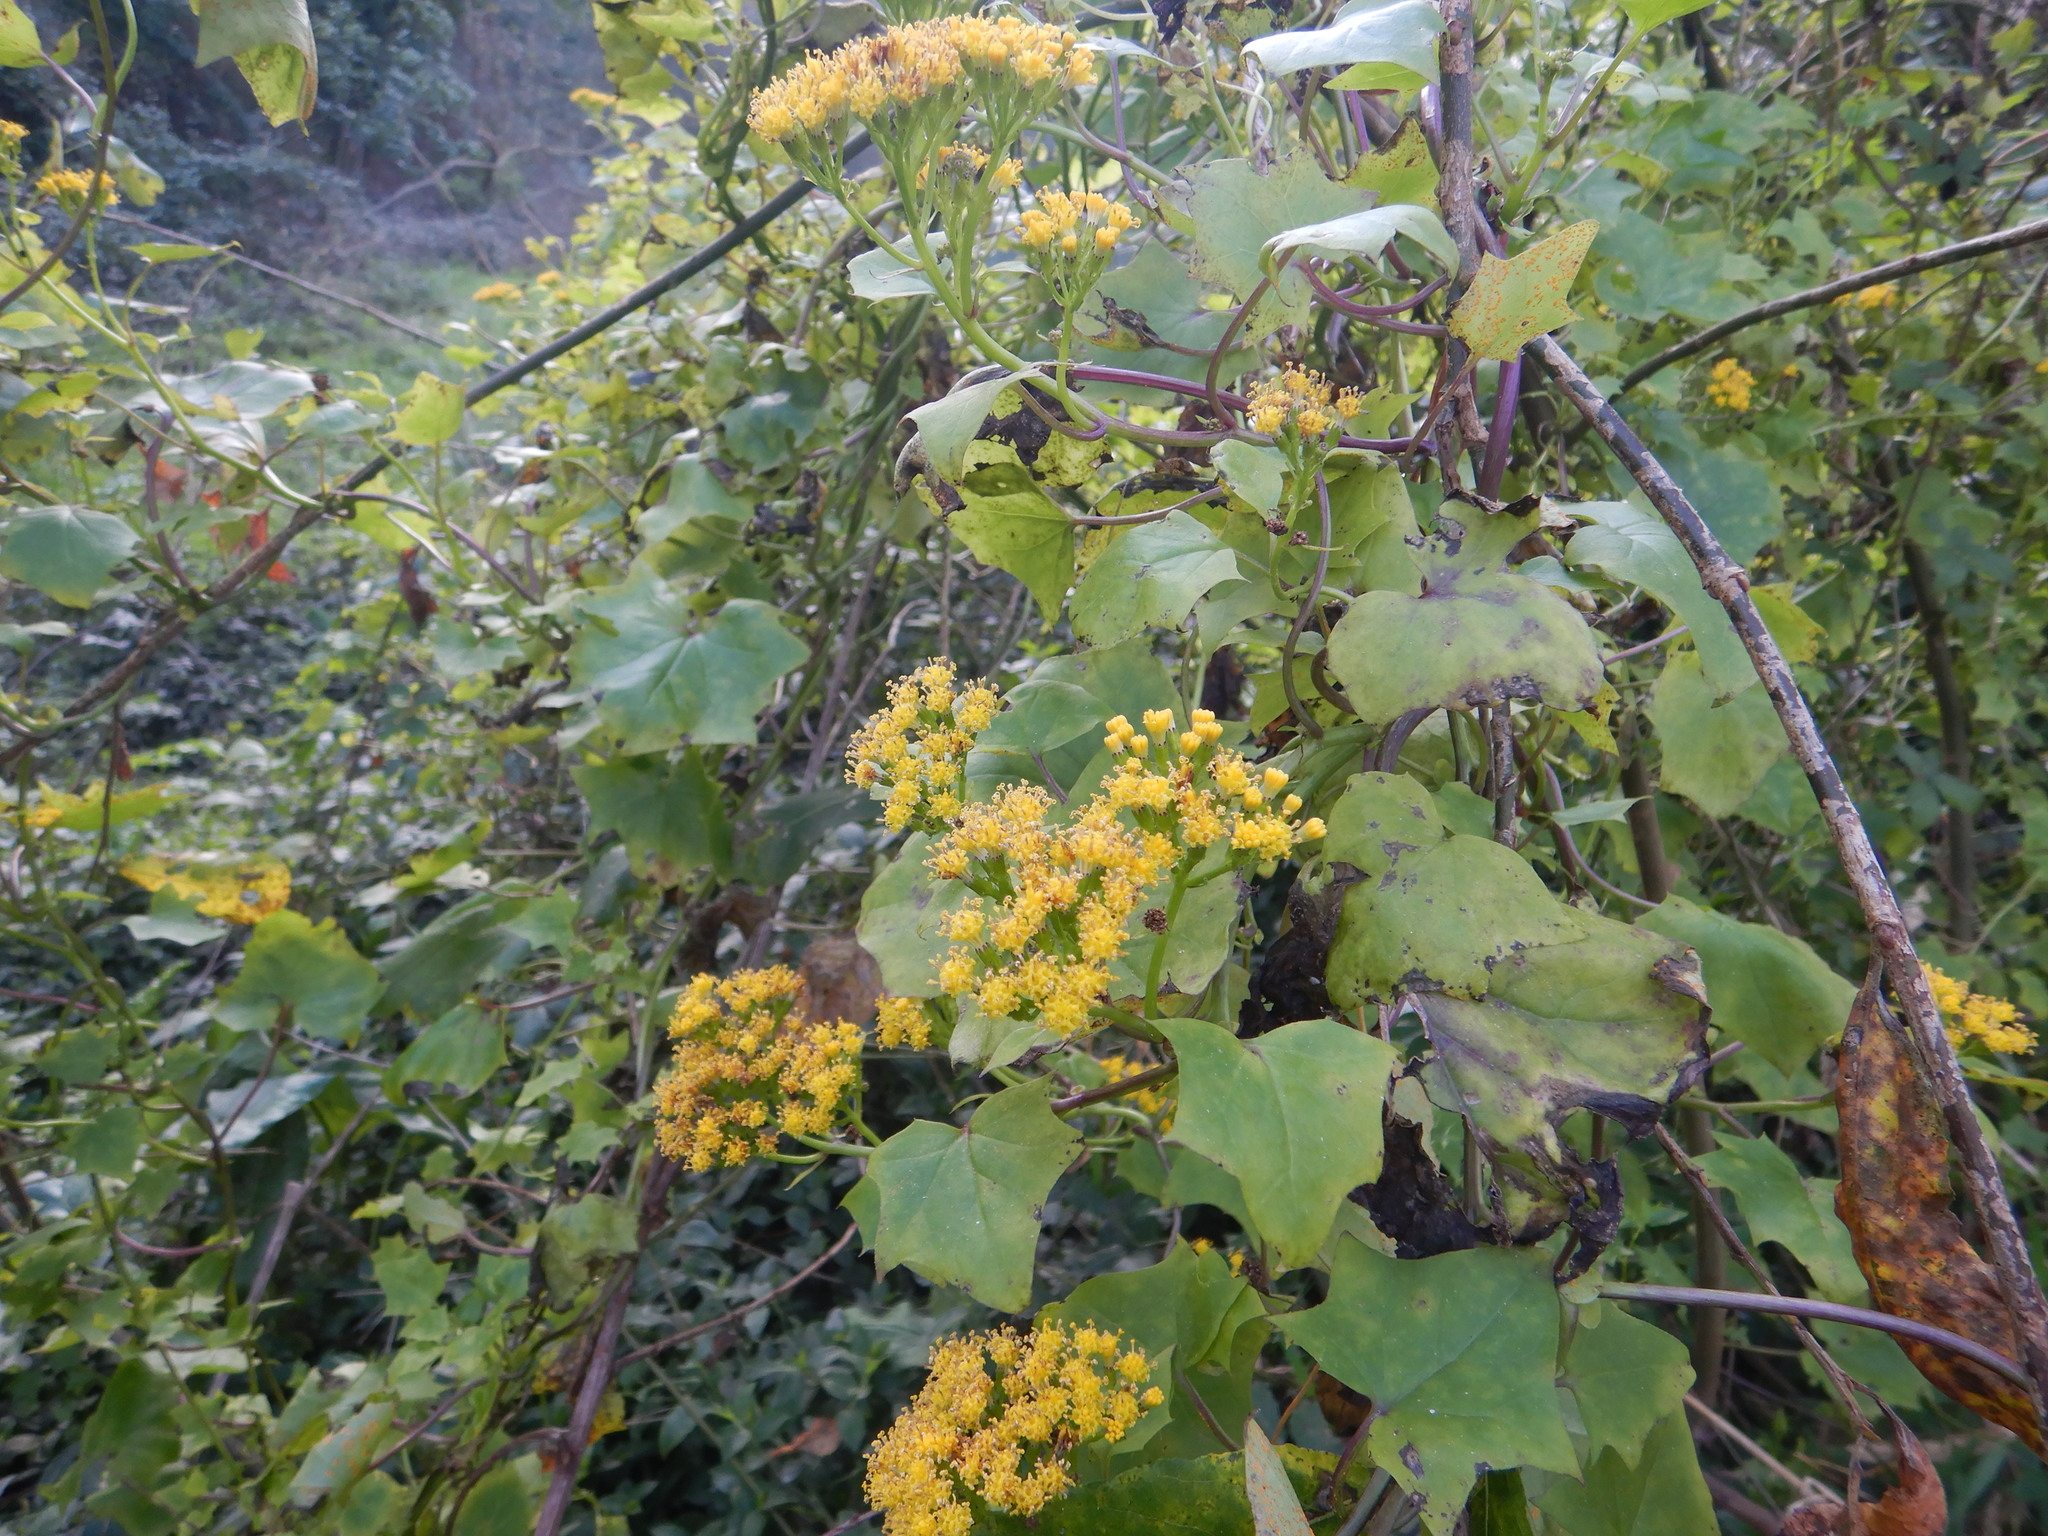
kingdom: Plantae
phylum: Tracheophyta
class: Magnoliopsida
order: Asterales
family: Asteraceae
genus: Delairea
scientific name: Delairea odorata
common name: Cape-ivy
